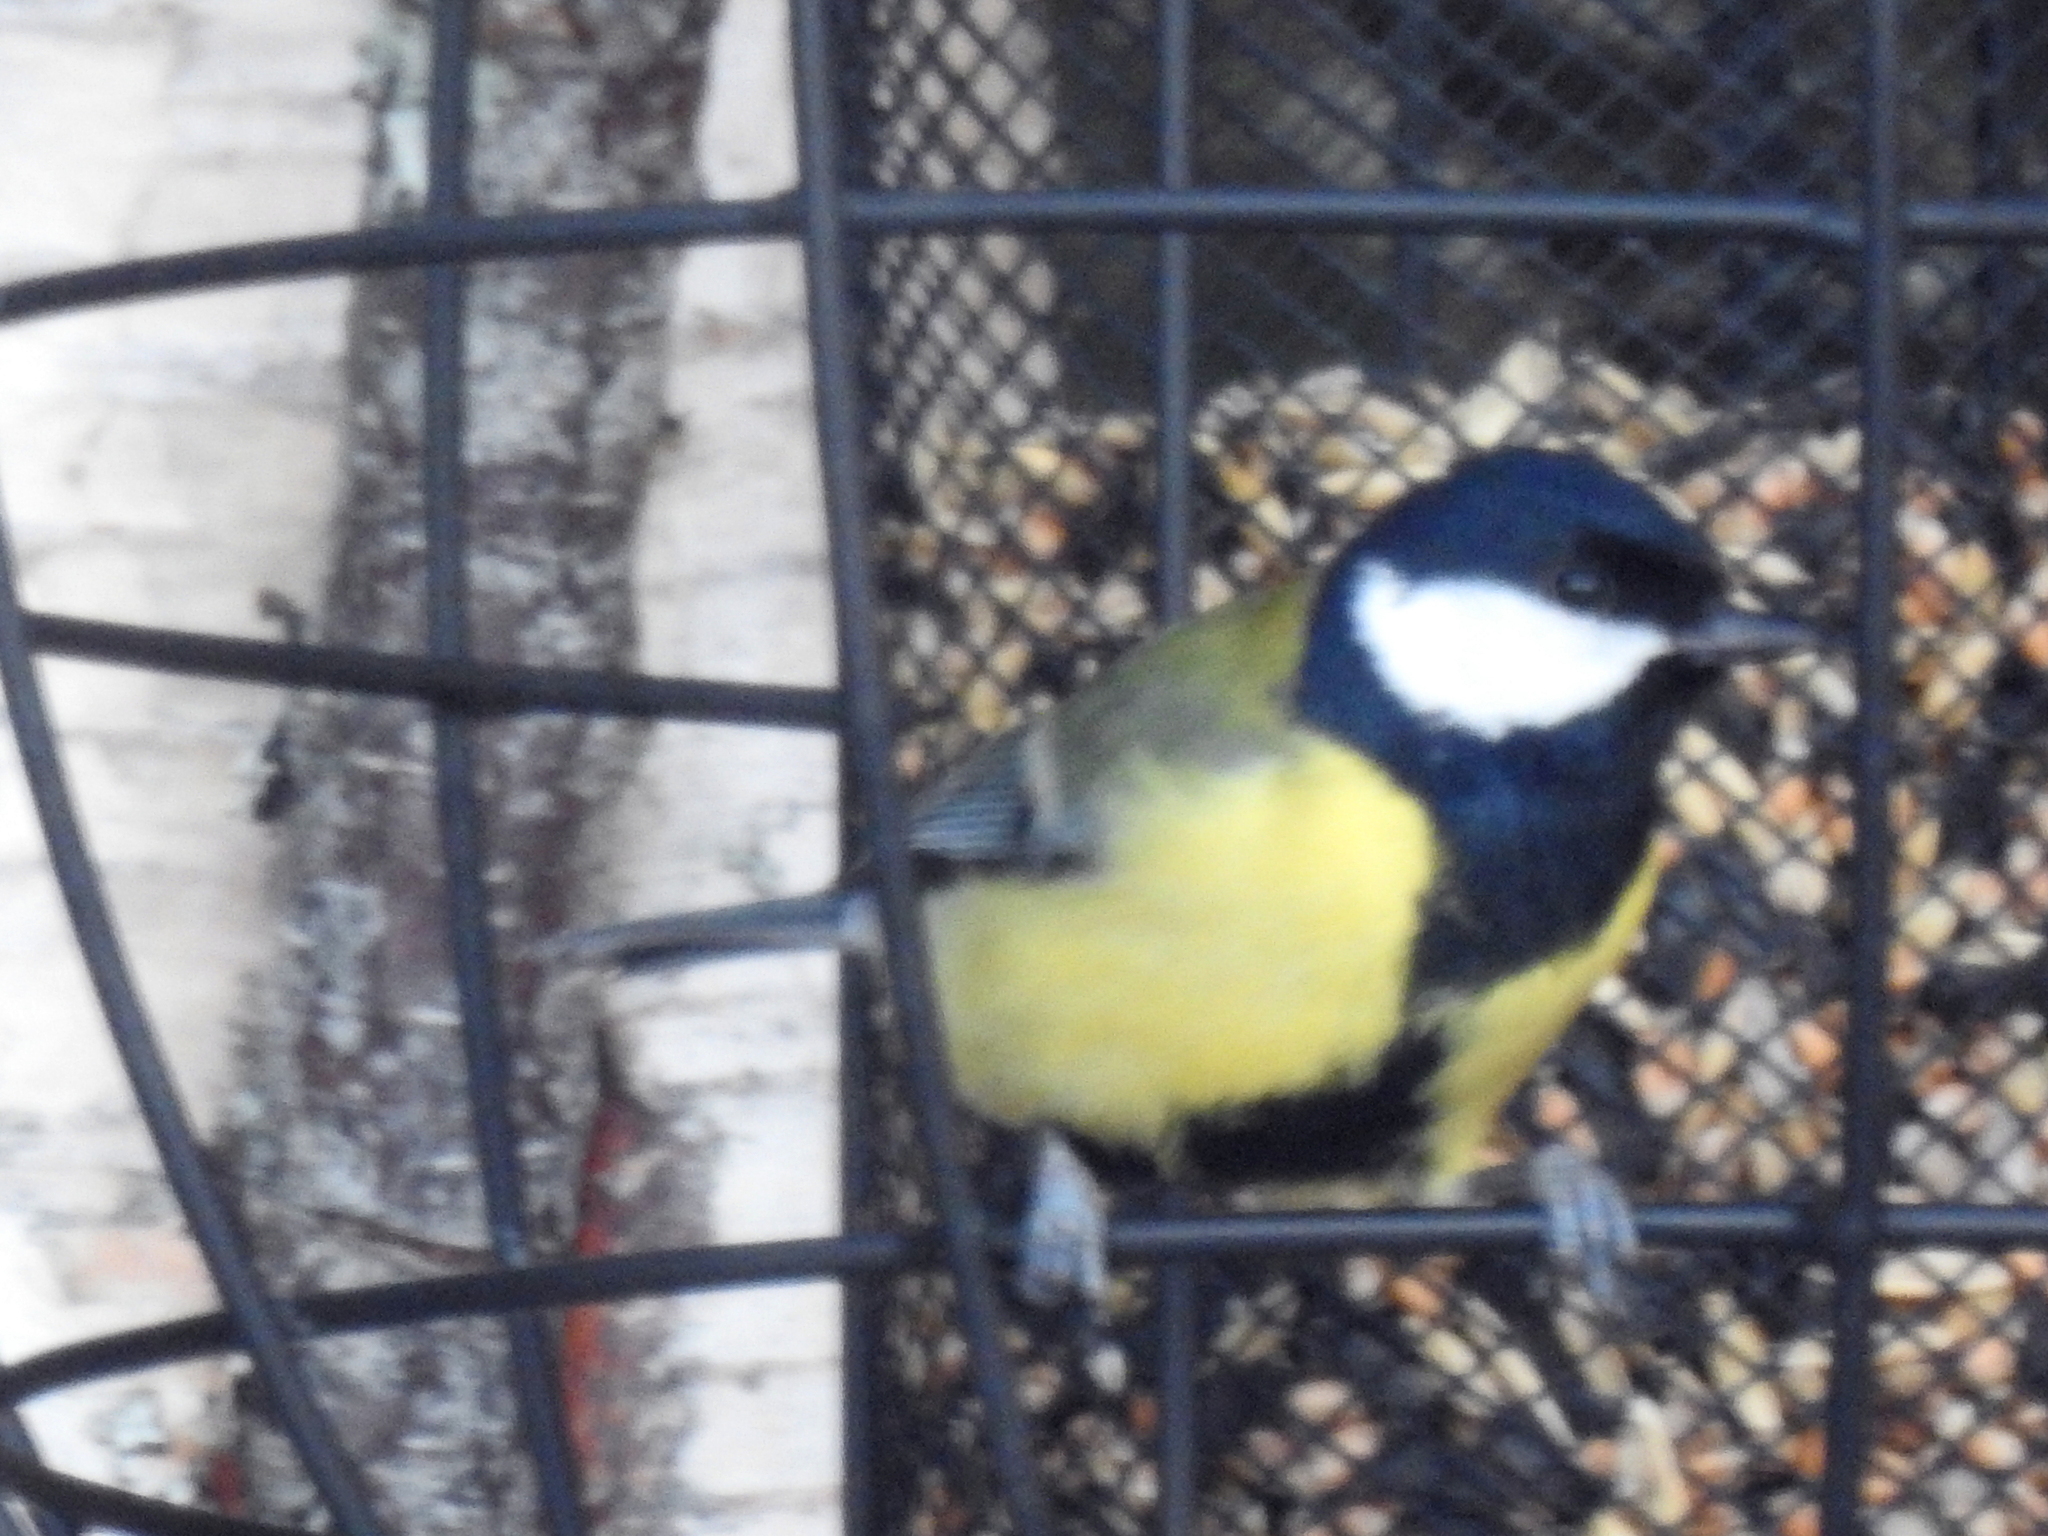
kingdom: Animalia
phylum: Chordata
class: Aves
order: Passeriformes
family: Paridae
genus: Parus
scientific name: Parus major
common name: Great tit
